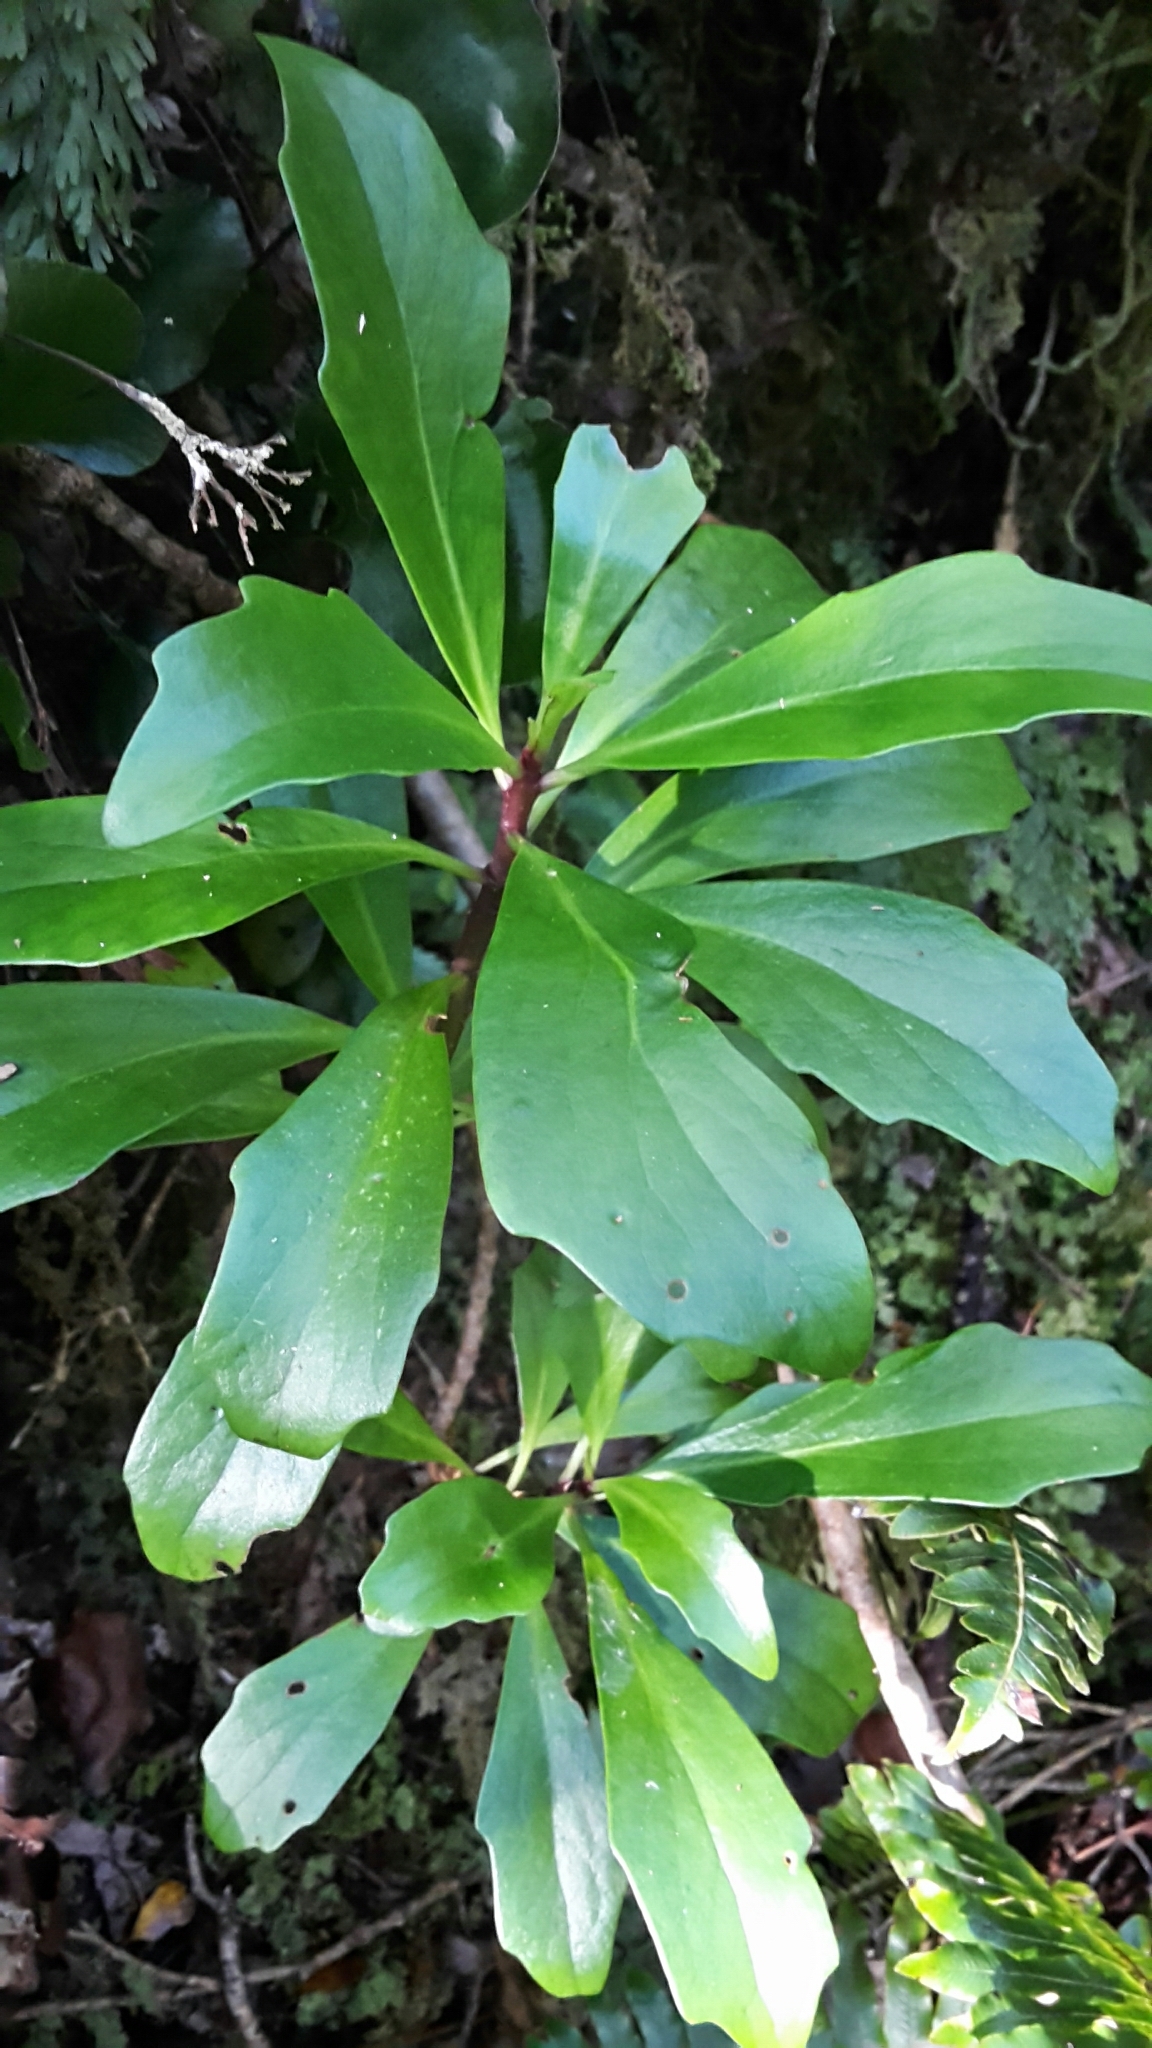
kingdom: Plantae
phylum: Tracheophyta
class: Magnoliopsida
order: Asterales
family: Asteraceae
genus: Brachyglottis
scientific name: Brachyglottis kirkii
